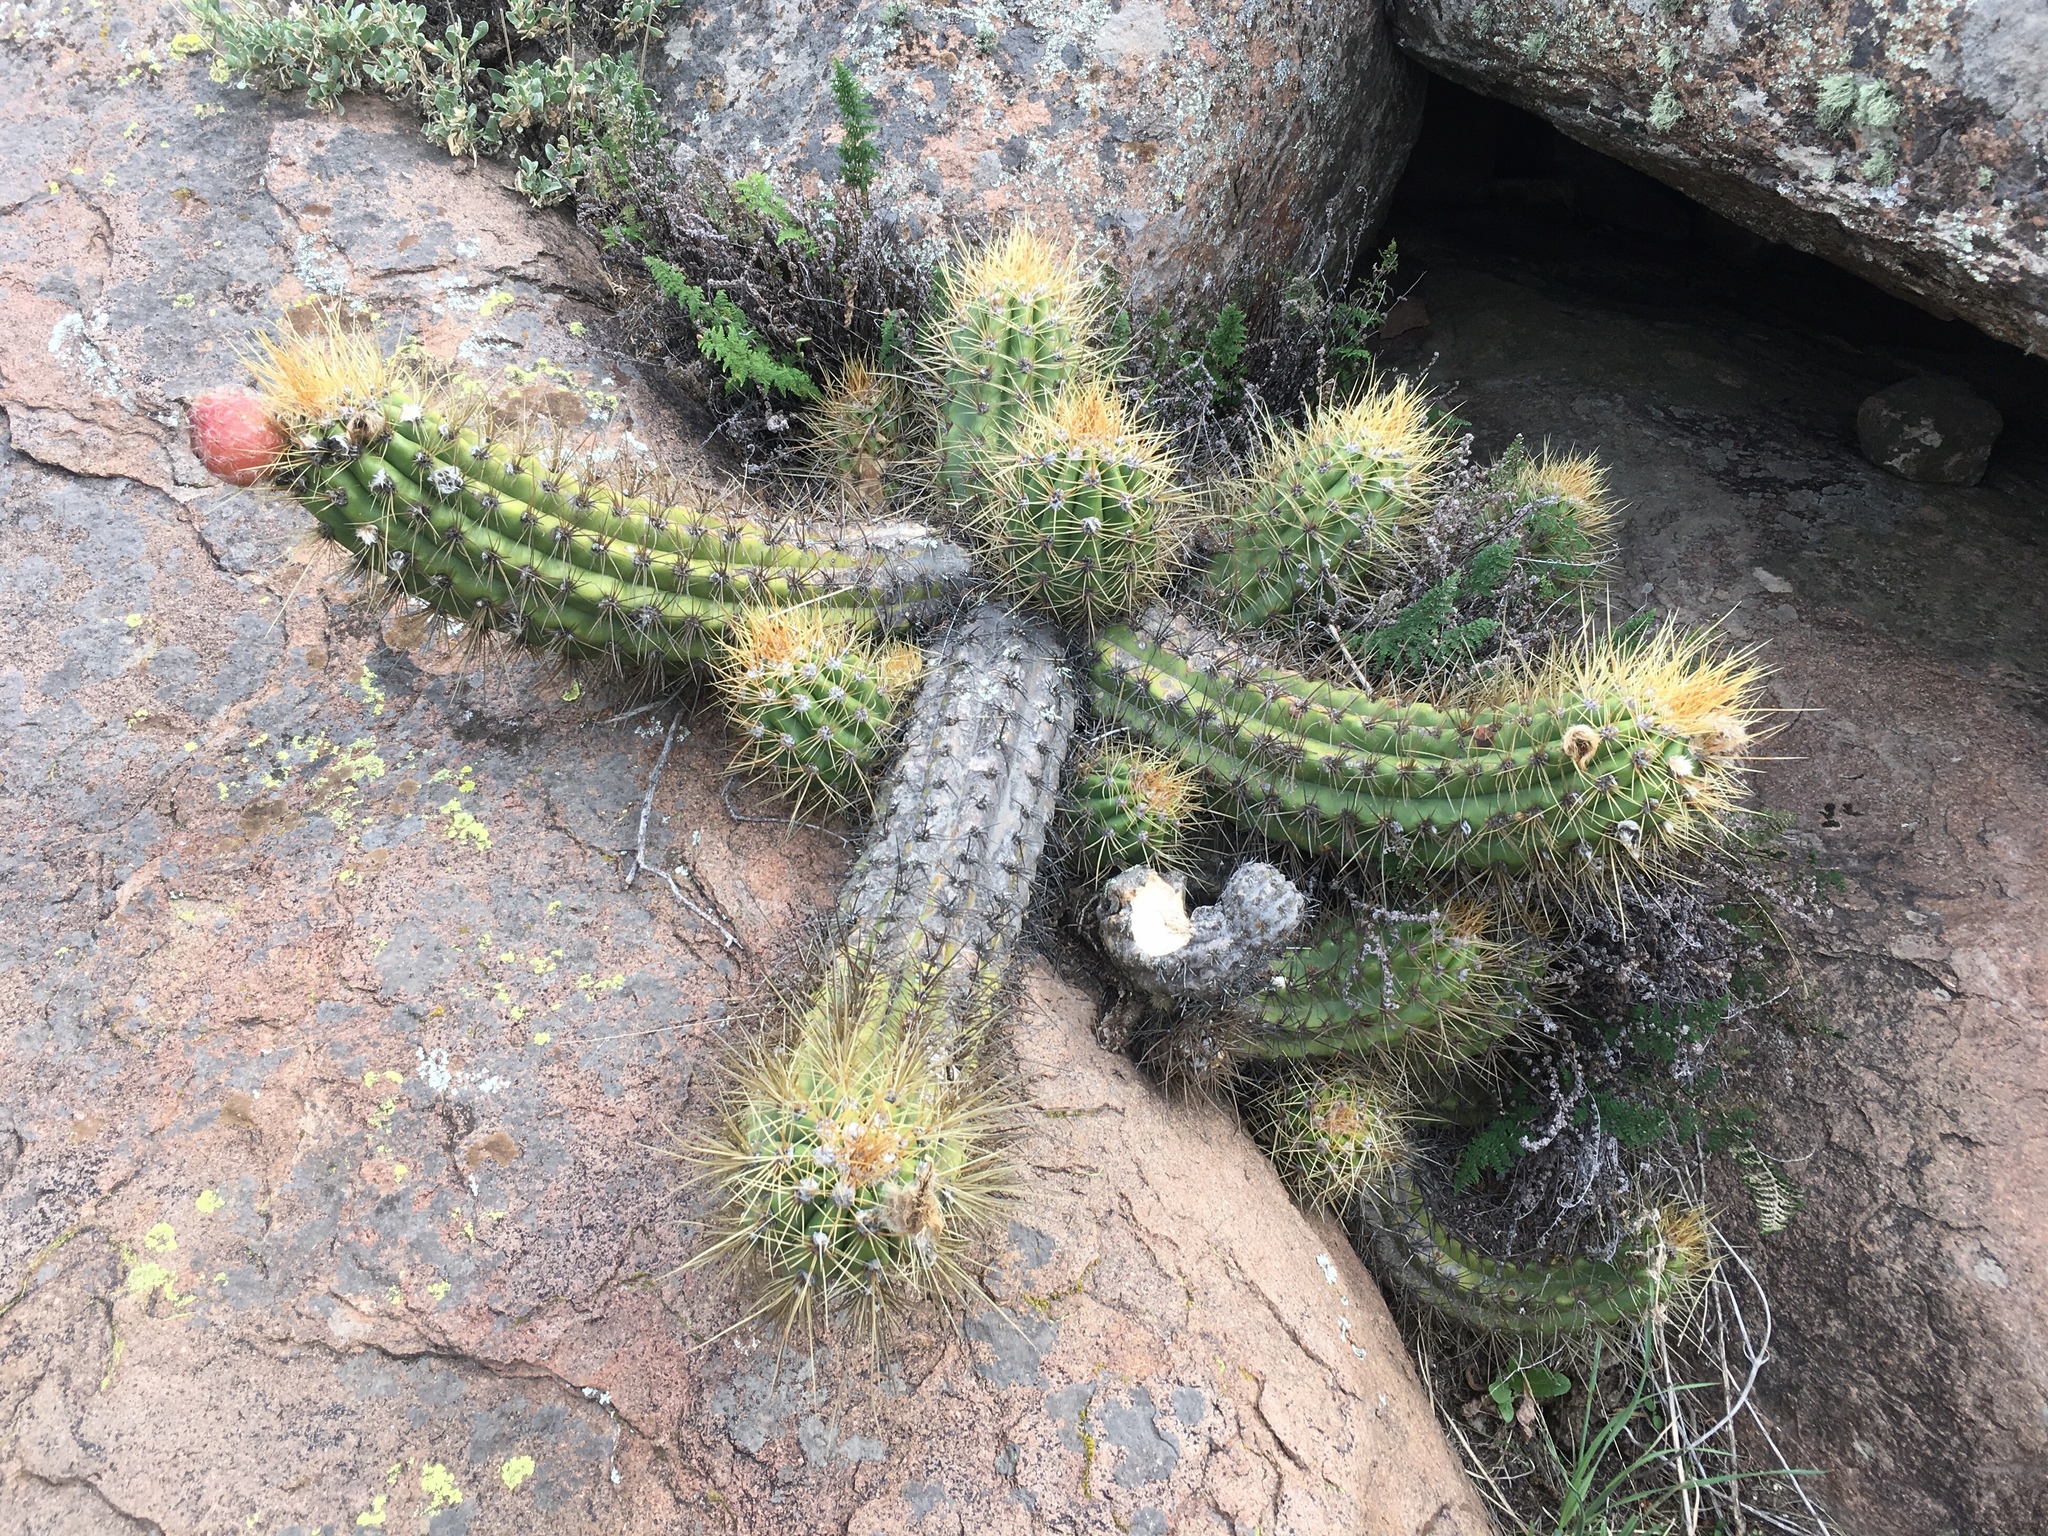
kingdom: Plantae
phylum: Tracheophyta
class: Magnoliopsida
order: Caryophyllales
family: Cactaceae
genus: Soehrensia
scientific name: Soehrensia candicans
